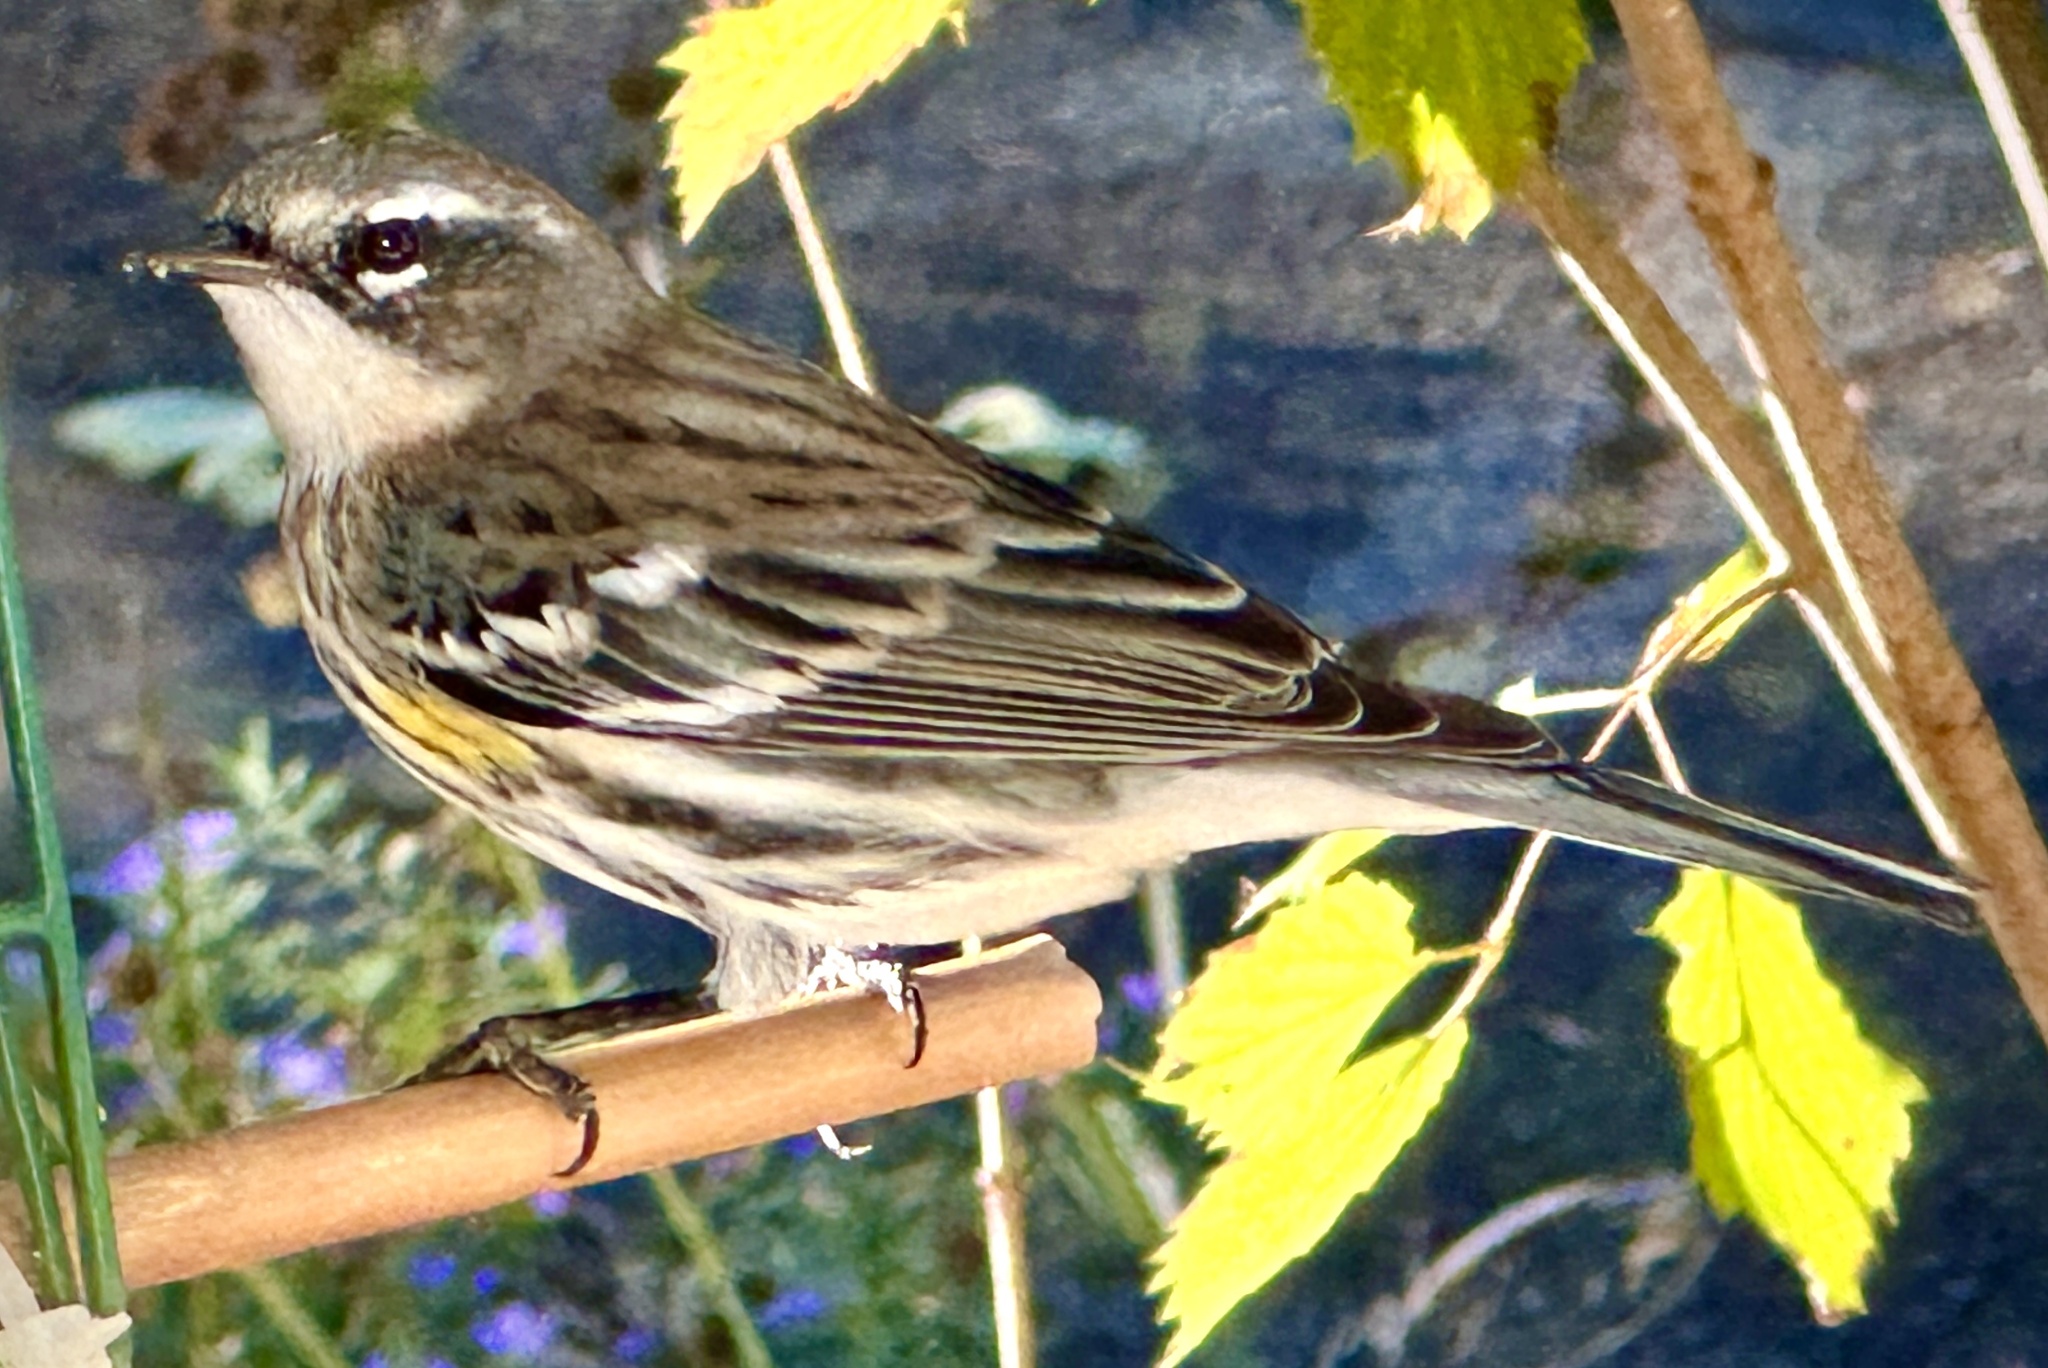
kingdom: Animalia
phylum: Chordata
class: Aves
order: Passeriformes
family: Parulidae
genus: Setophaga
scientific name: Setophaga coronata
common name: Myrtle warbler
